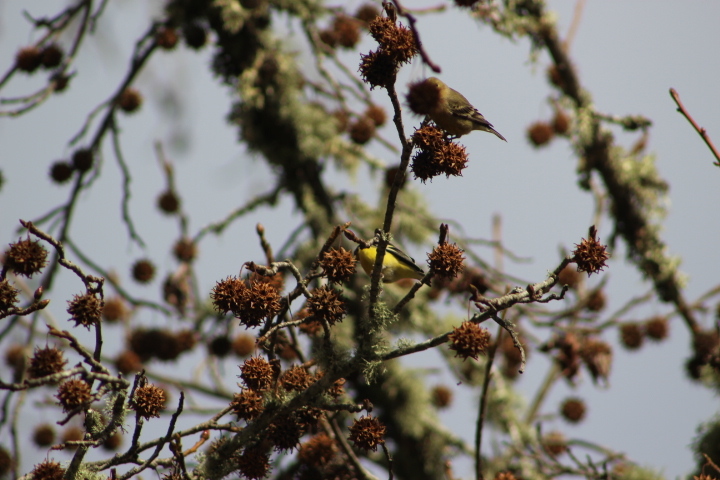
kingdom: Animalia
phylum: Chordata
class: Aves
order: Passeriformes
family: Fringillidae
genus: Spinus
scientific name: Spinus psaltria
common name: Lesser goldfinch
